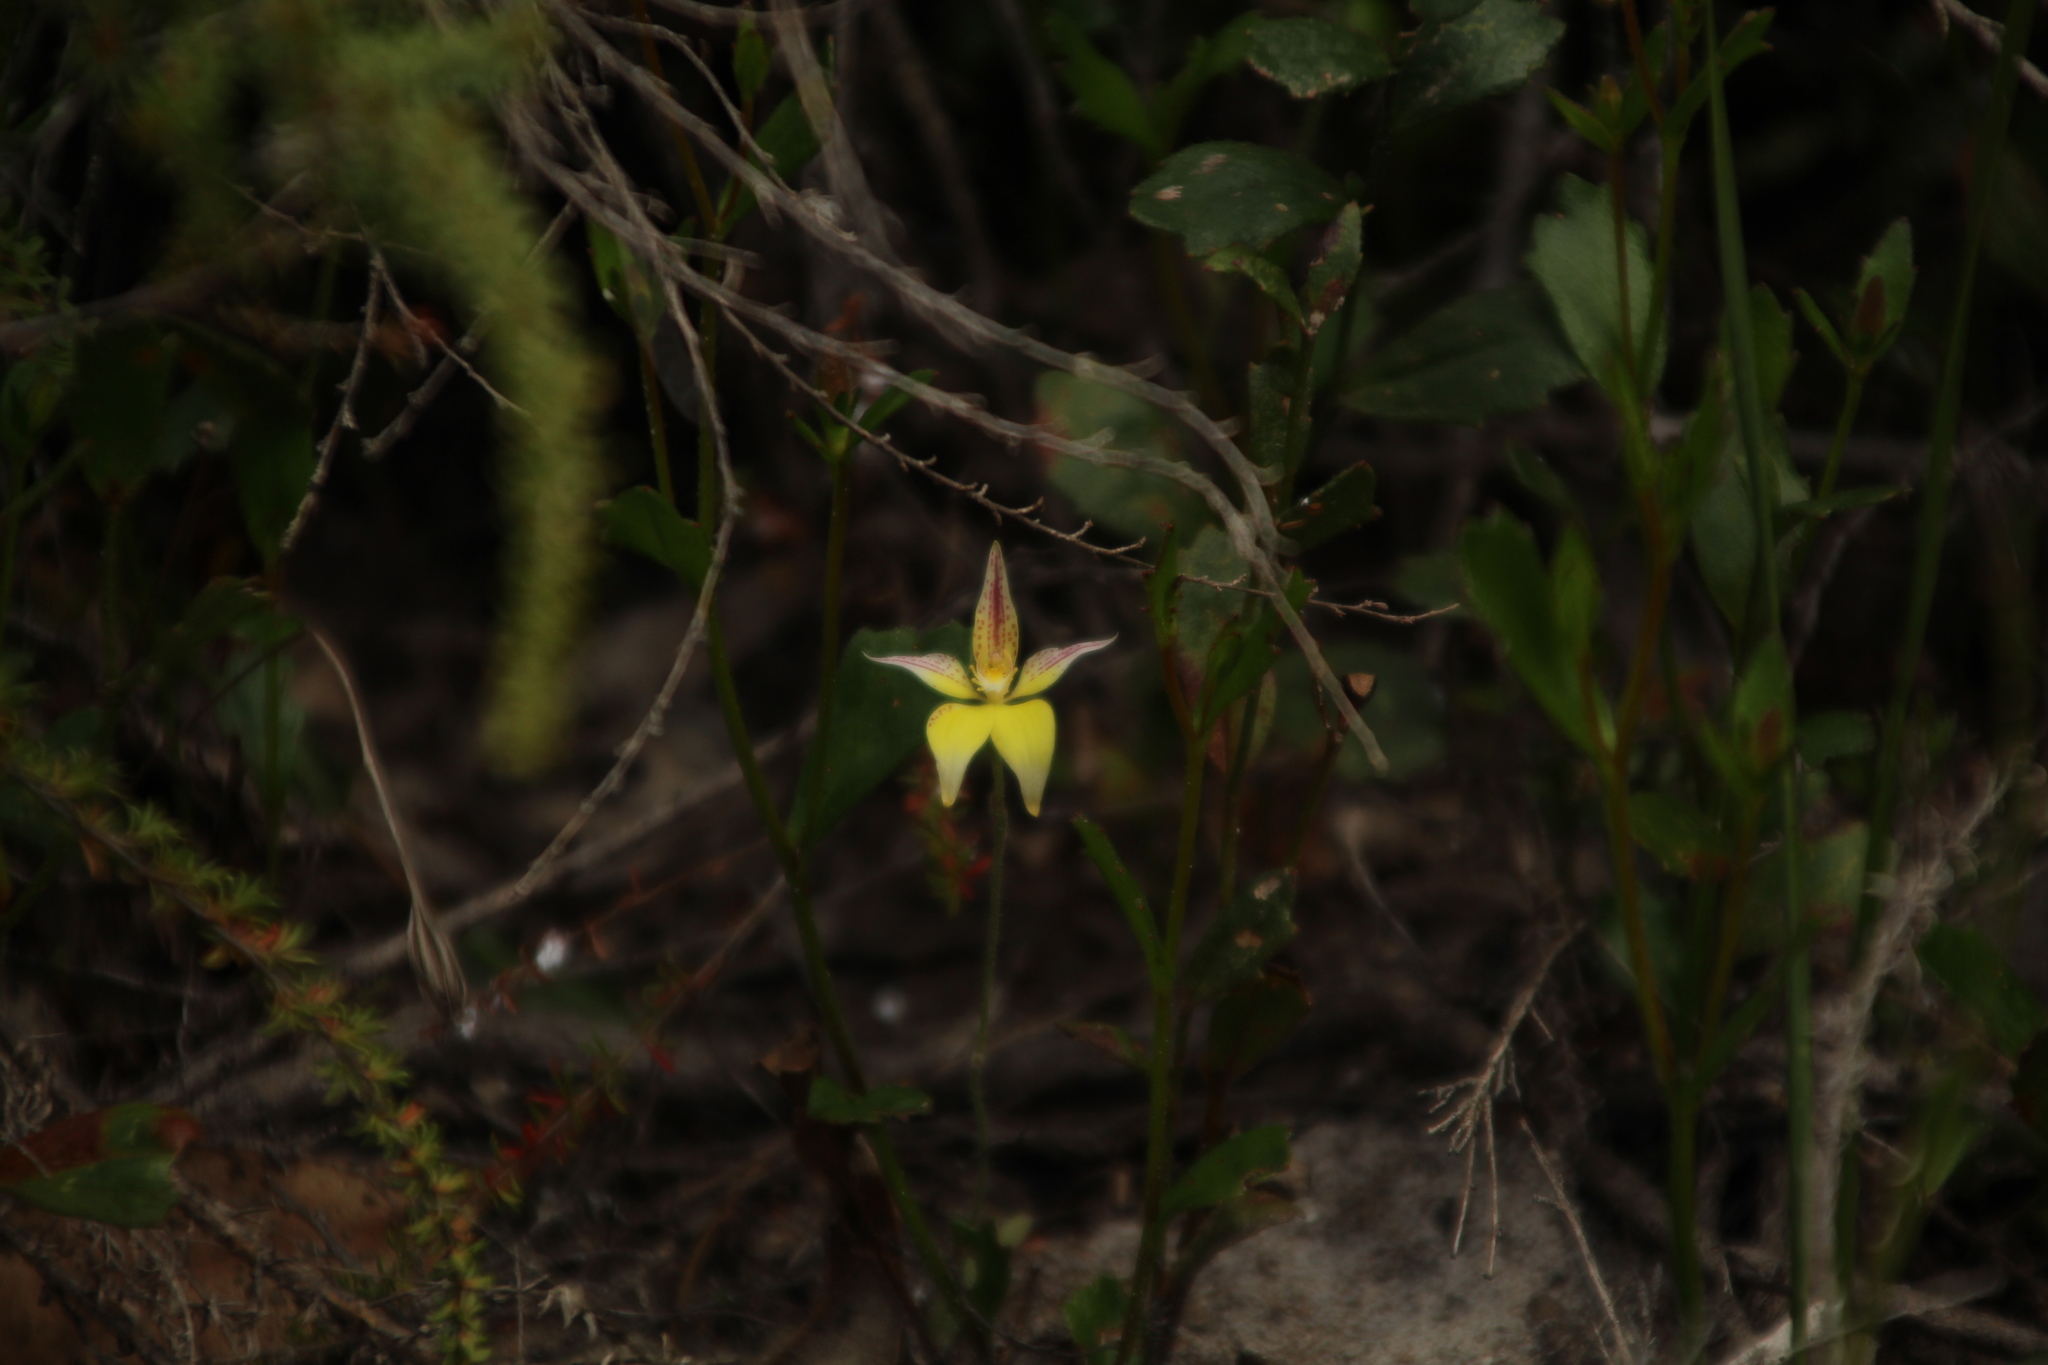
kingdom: Plantae
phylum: Tracheophyta
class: Liliopsida
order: Asparagales
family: Orchidaceae
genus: Caladenia
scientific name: Caladenia flava
